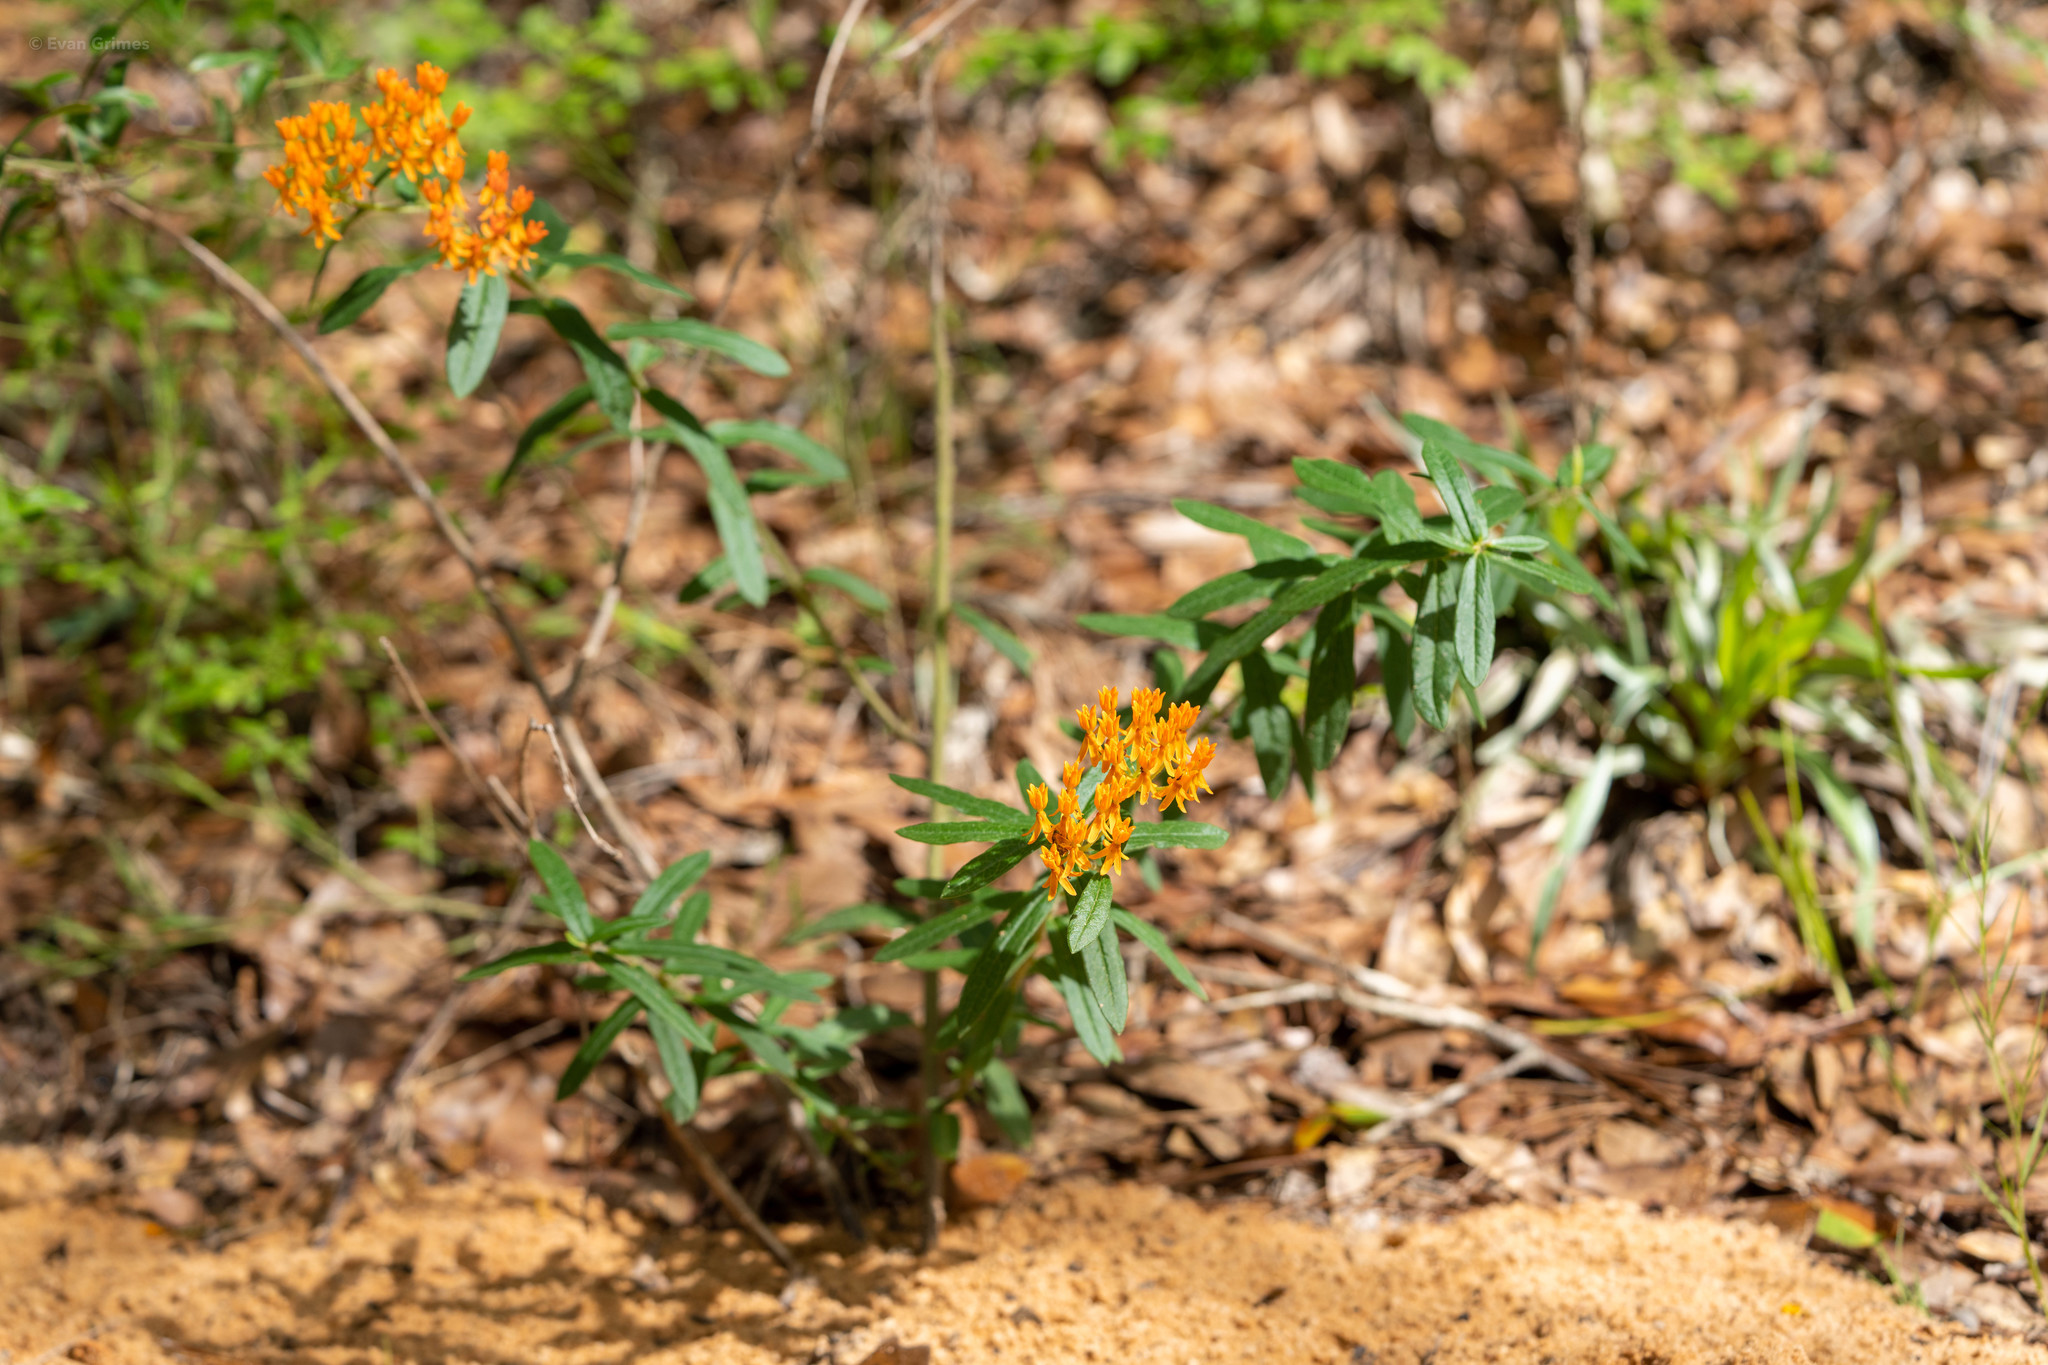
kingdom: Plantae
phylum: Tracheophyta
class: Magnoliopsida
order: Gentianales
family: Apocynaceae
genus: Asclepias
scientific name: Asclepias tuberosa
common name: Butterfly milkweed
